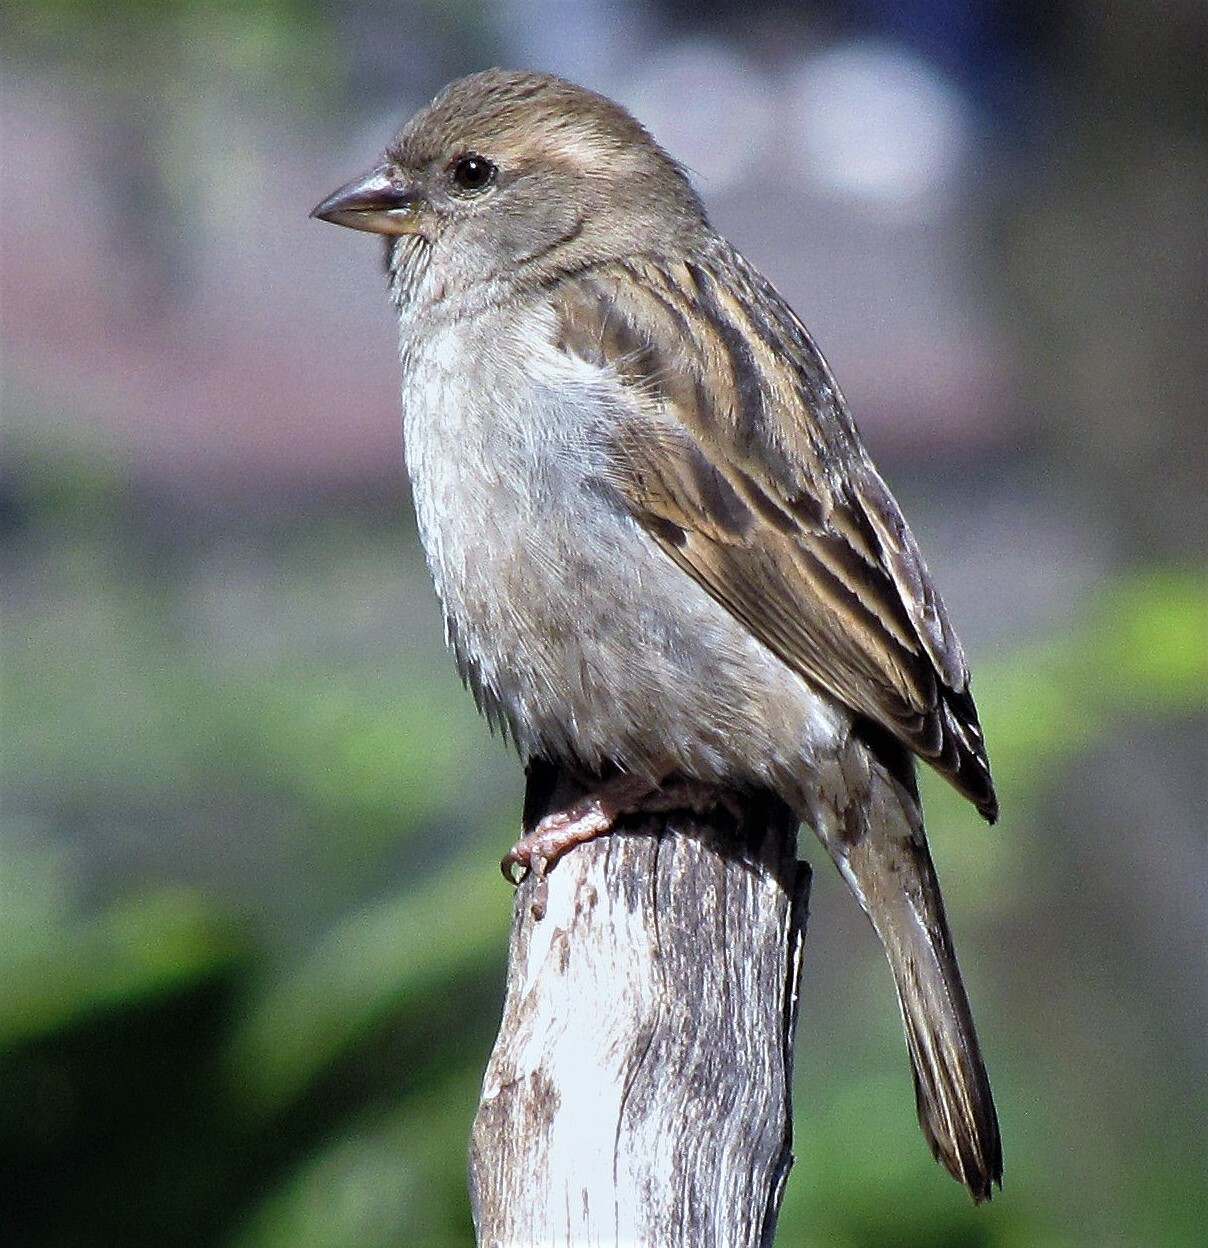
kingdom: Animalia
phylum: Chordata
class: Aves
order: Passeriformes
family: Passeridae
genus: Passer
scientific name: Passer domesticus
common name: House sparrow
